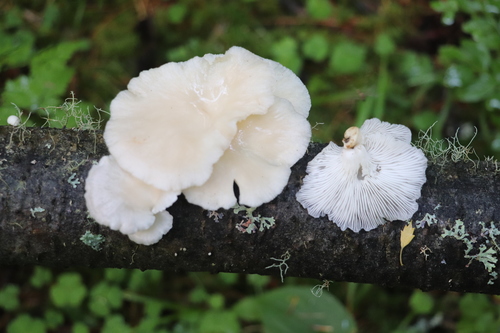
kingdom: Fungi
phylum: Basidiomycota
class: Agaricomycetes
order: Agaricales
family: Pleurotaceae
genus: Pleurotus
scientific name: Pleurotus pulmonarius
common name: Pale oyster
